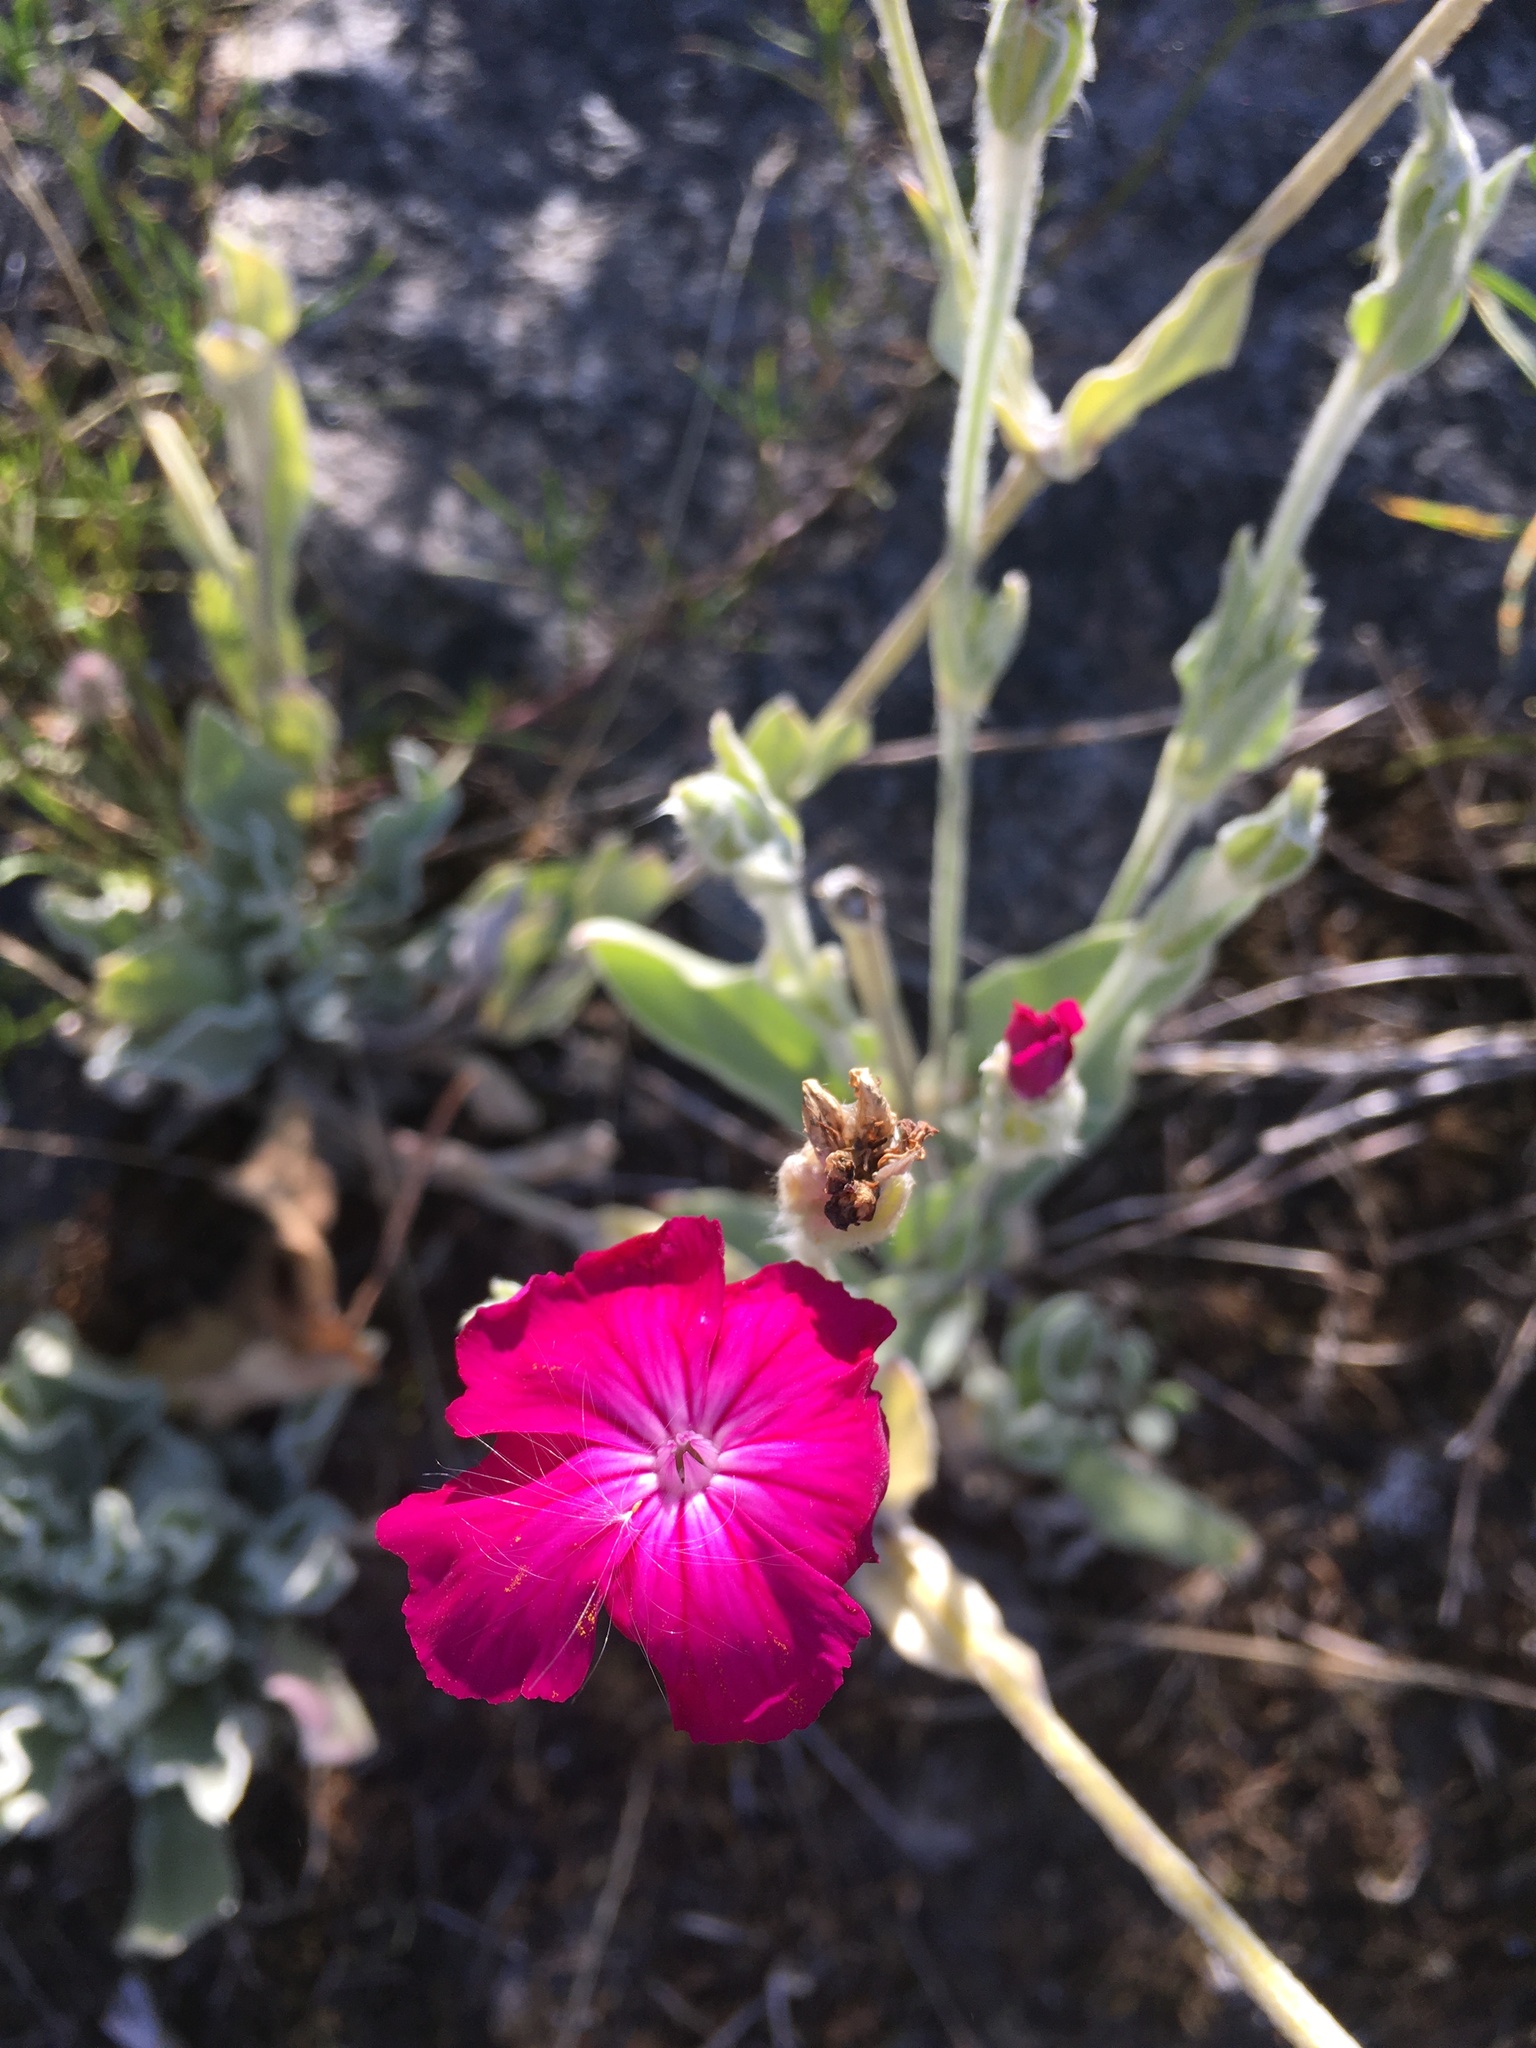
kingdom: Plantae
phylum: Tracheophyta
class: Magnoliopsida
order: Caryophyllales
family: Caryophyllaceae
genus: Silene
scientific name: Silene coronaria
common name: Rose campion
